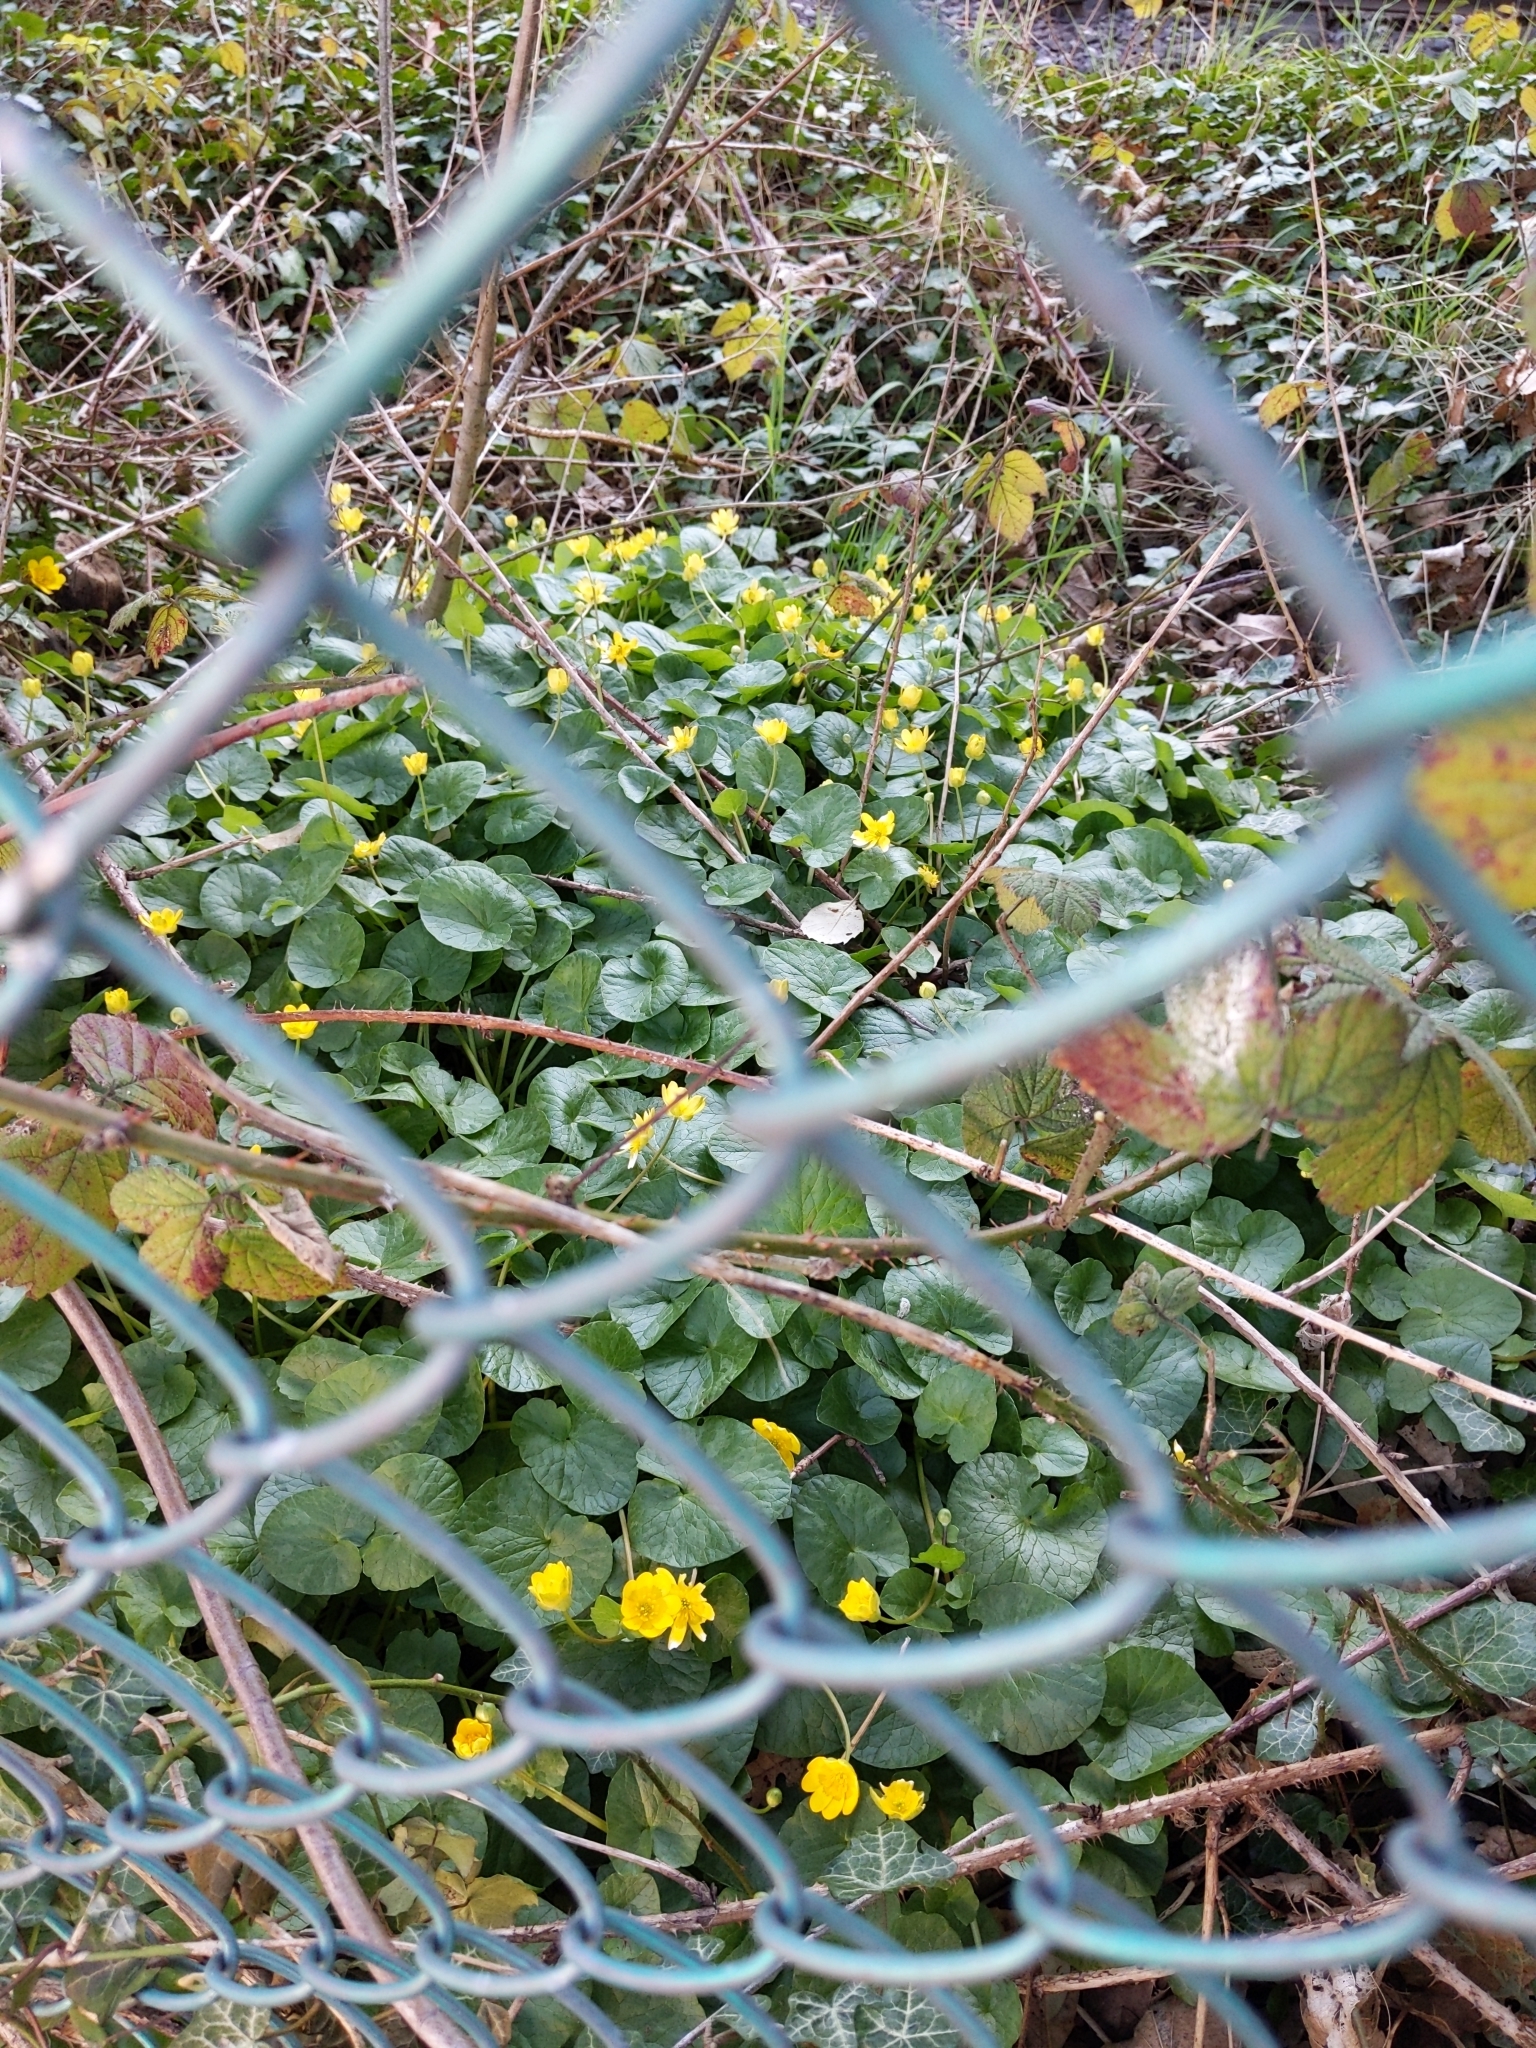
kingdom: Plantae
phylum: Tracheophyta
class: Magnoliopsida
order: Ranunculales
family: Ranunculaceae
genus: Ficaria
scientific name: Ficaria verna
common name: Lesser celandine
